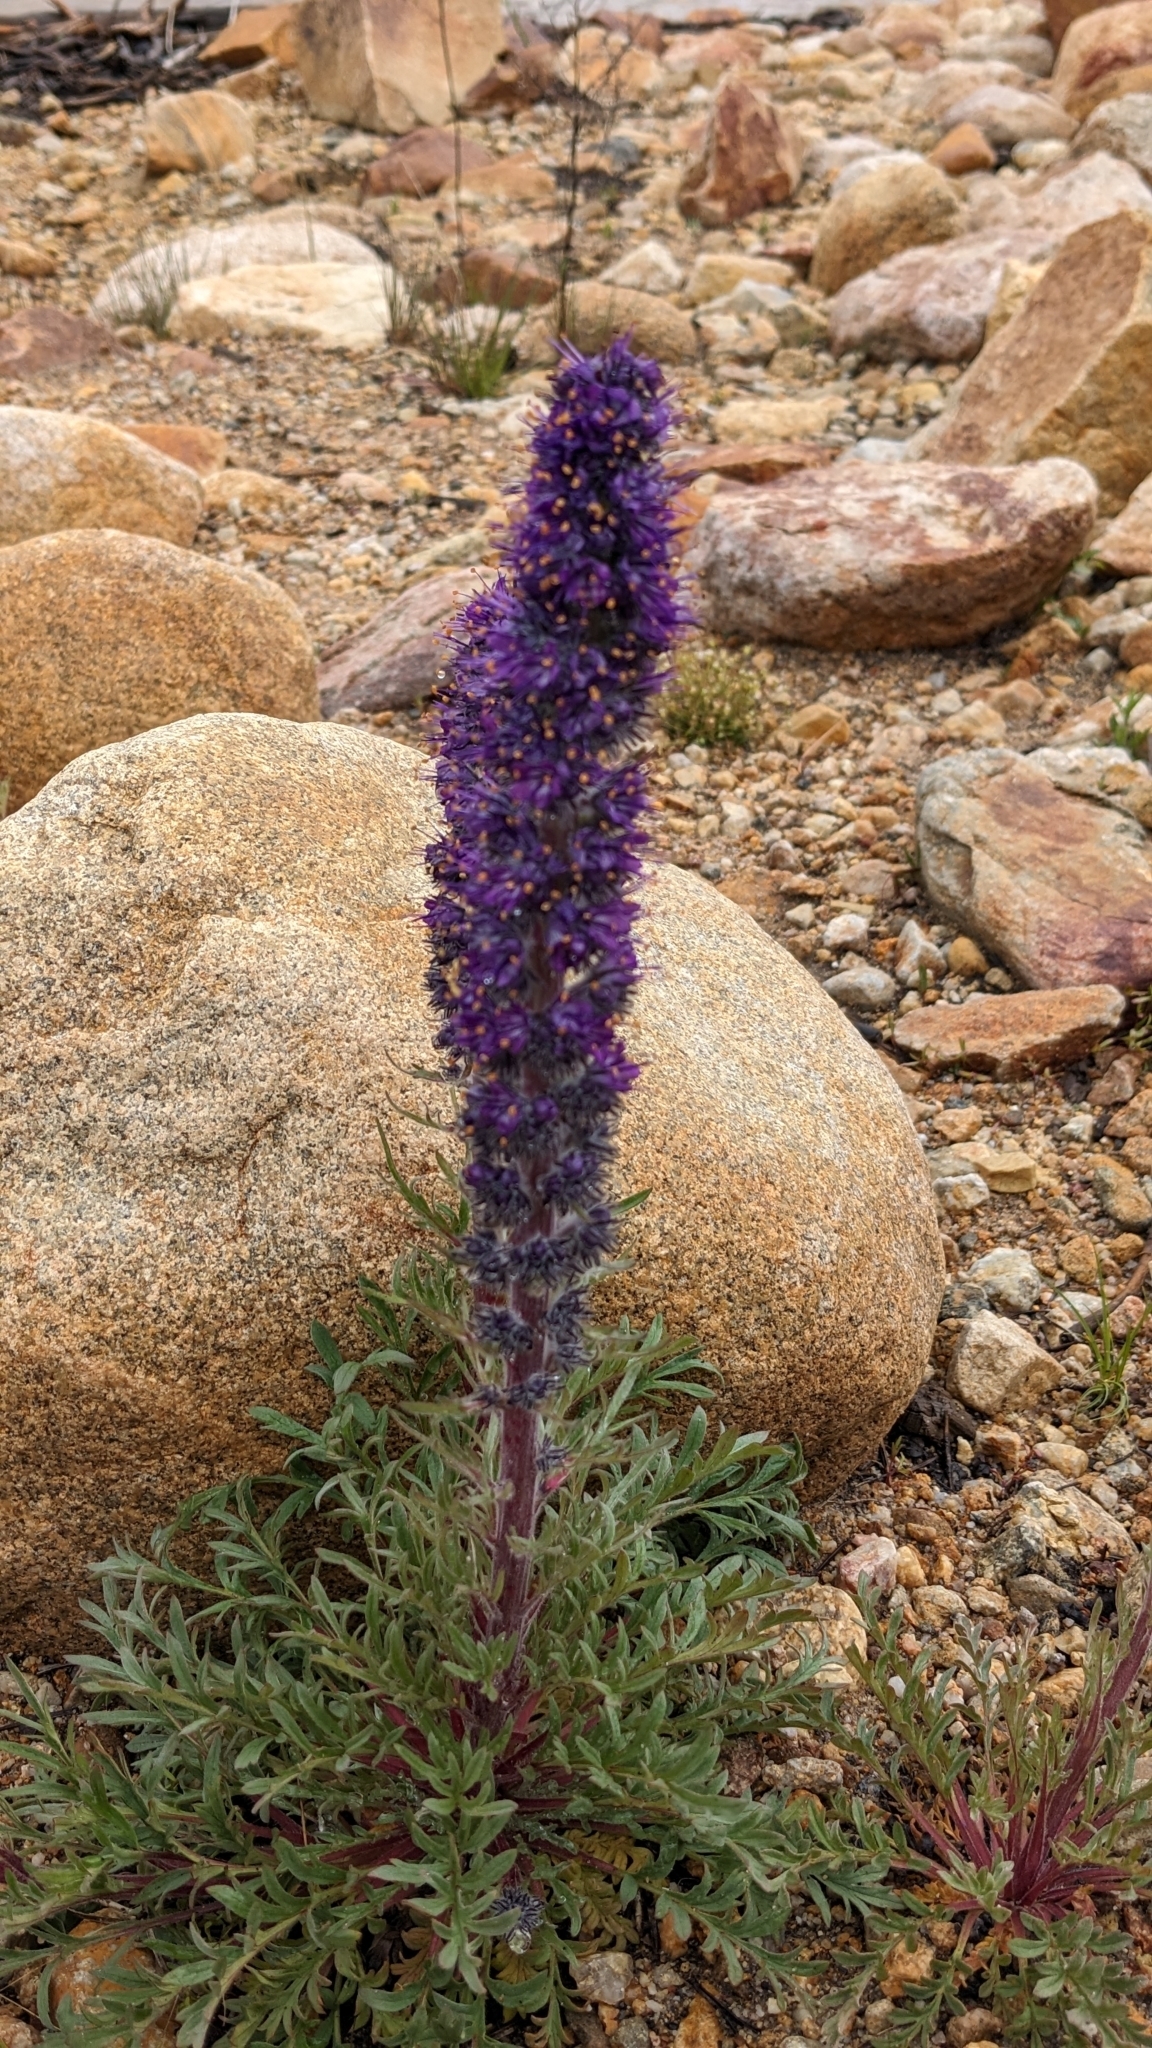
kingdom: Plantae
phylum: Tracheophyta
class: Magnoliopsida
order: Boraginales
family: Hydrophyllaceae
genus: Phacelia
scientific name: Phacelia sericea
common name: Silky phacelia
